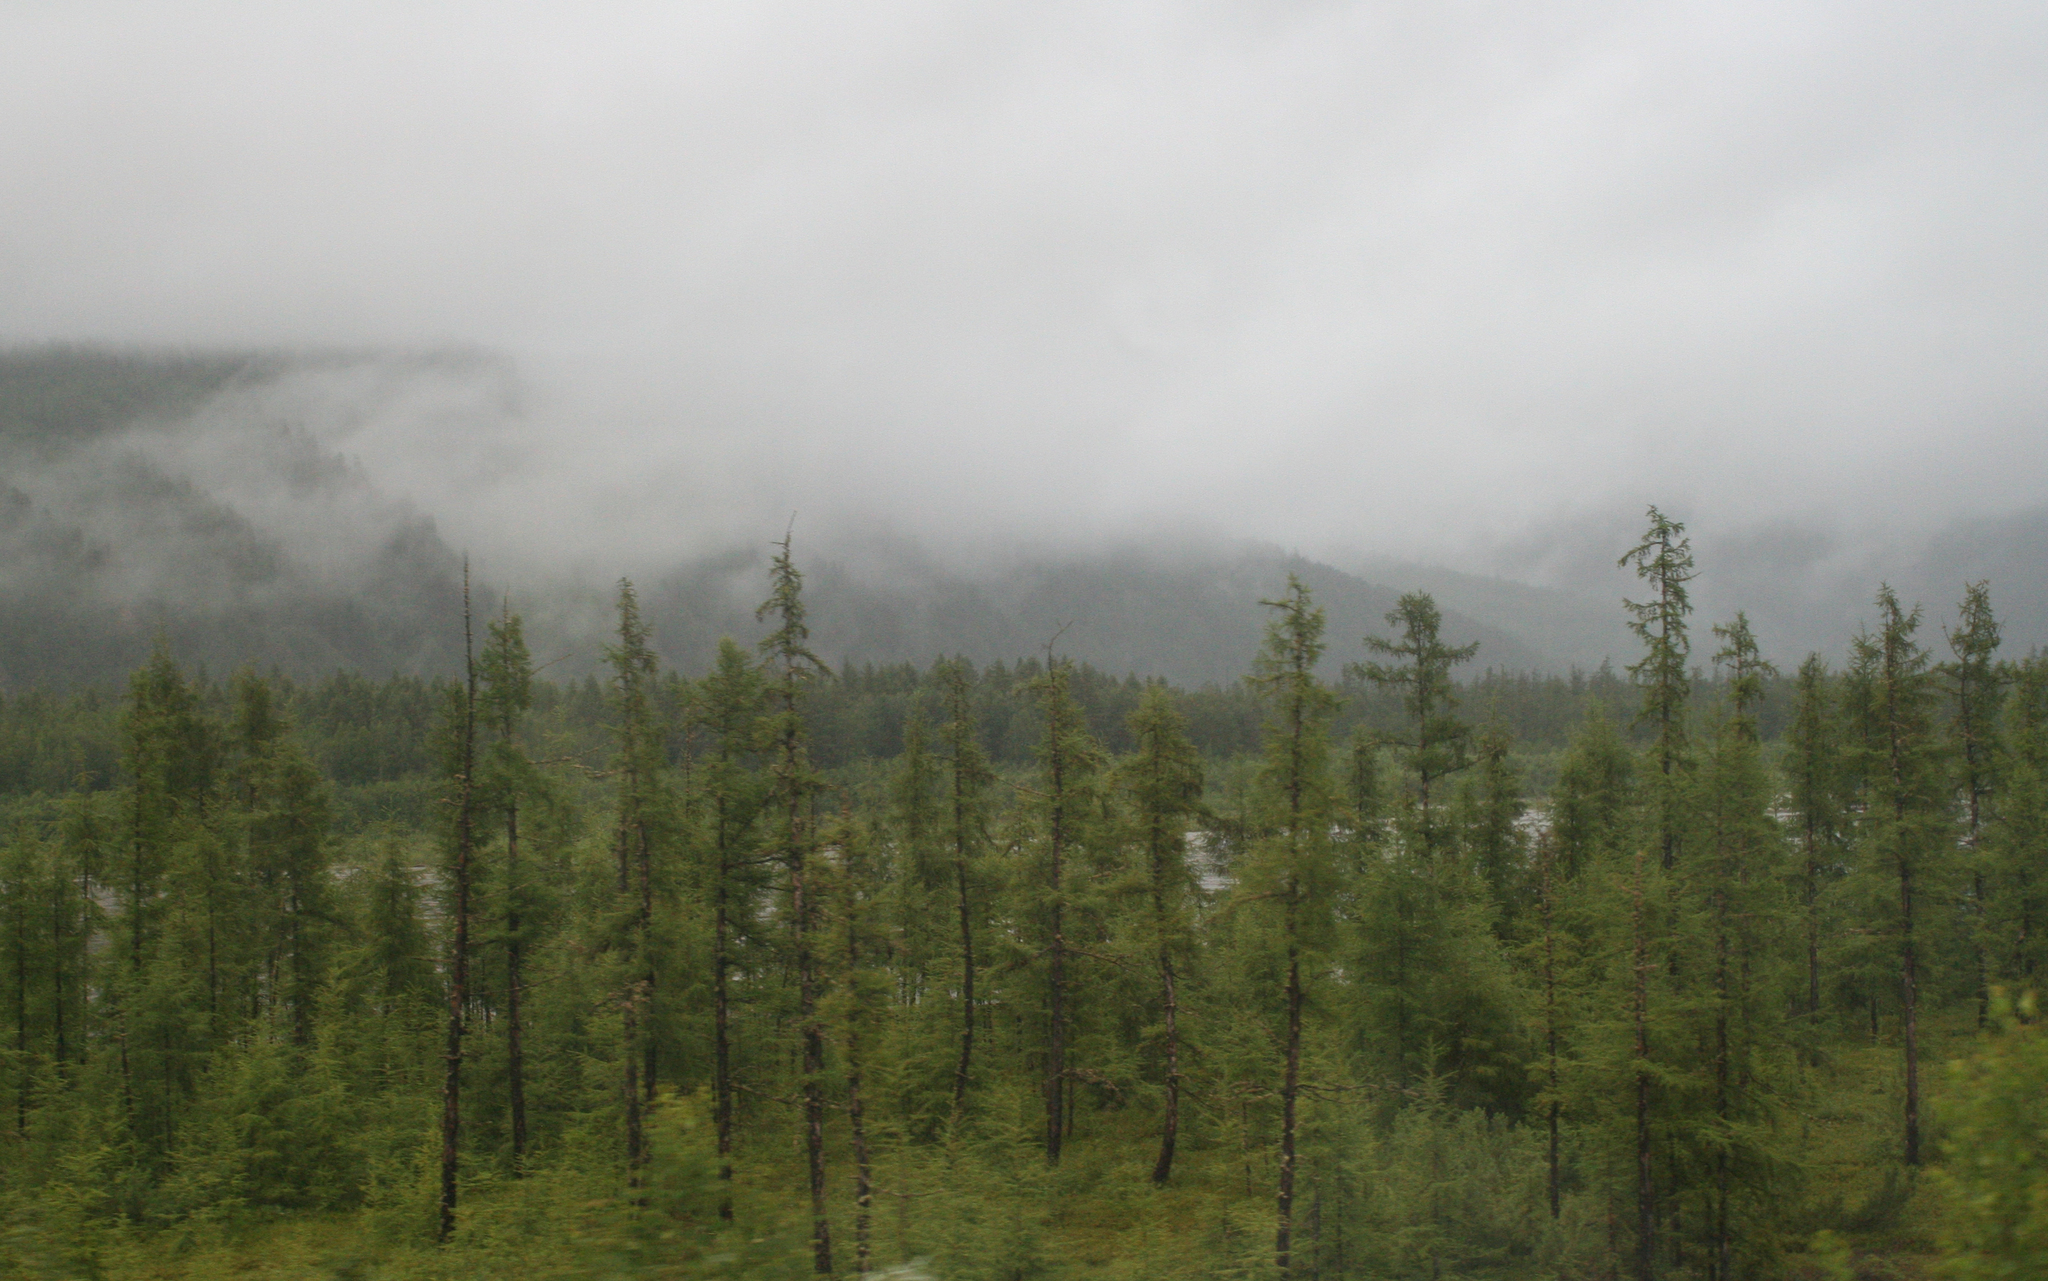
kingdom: Plantae
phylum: Tracheophyta
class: Pinopsida
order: Pinales
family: Pinaceae
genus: Larix
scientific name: Larix gmelinii
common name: Dahurian larch
